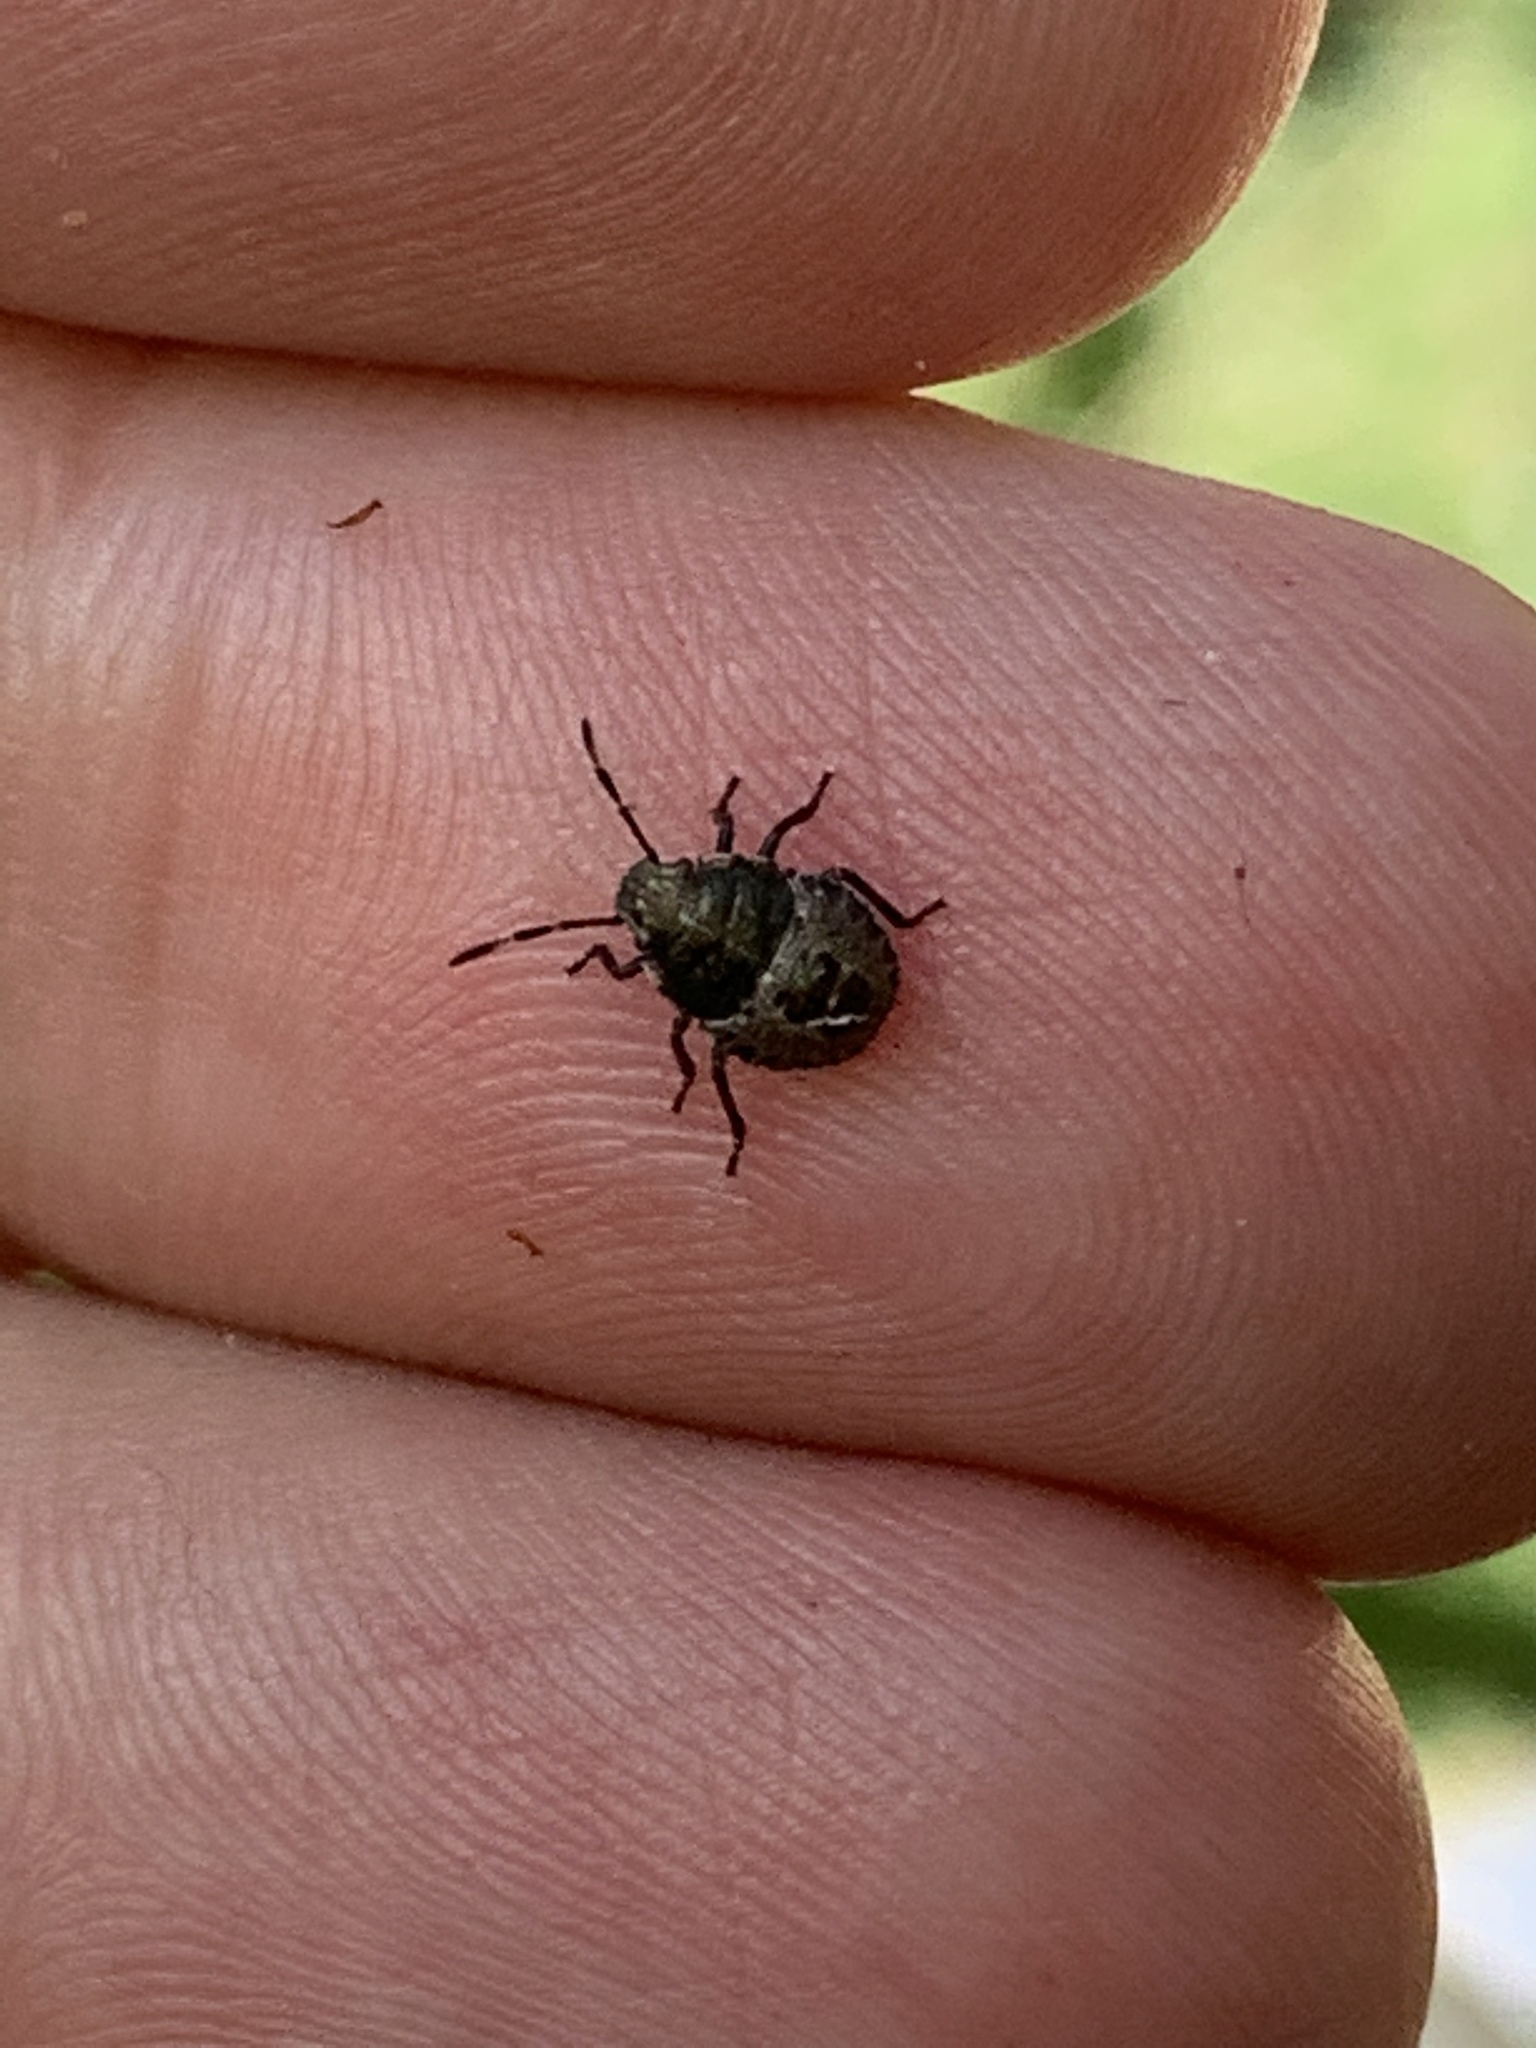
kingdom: Animalia
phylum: Arthropoda
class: Insecta
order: Hemiptera
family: Pentatomidae
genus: Rhaphigaster
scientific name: Rhaphigaster nebulosa
